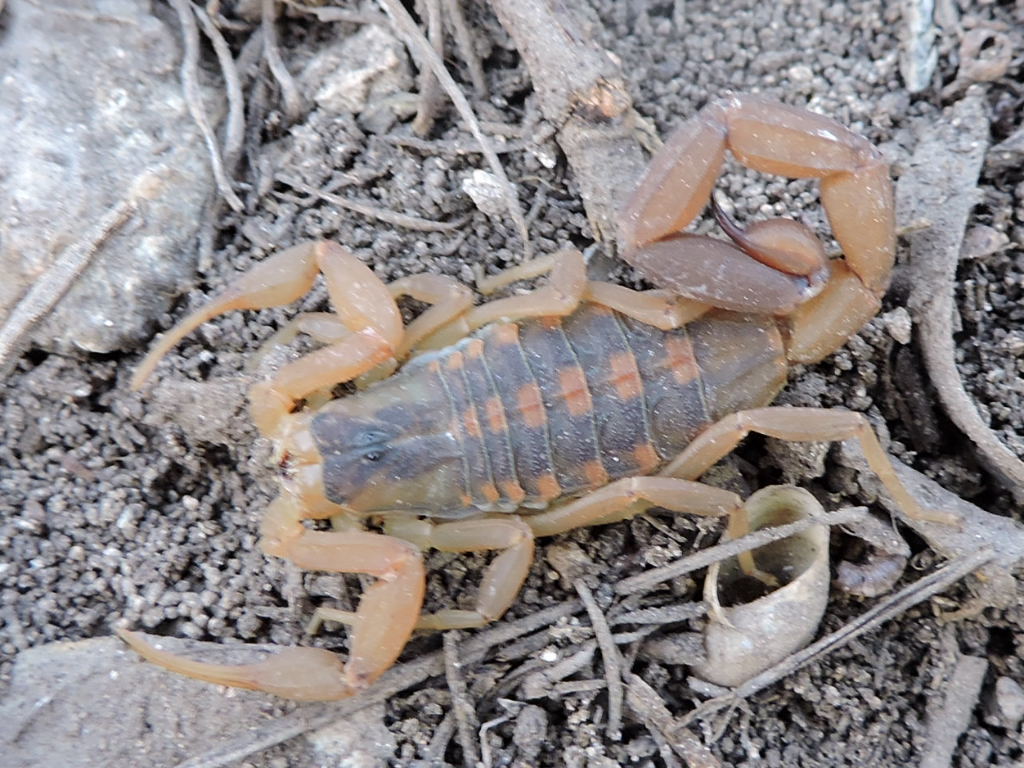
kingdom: Animalia
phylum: Arthropoda
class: Arachnida
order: Scorpiones
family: Buthidae
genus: Centruroides
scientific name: Centruroides vittatus
